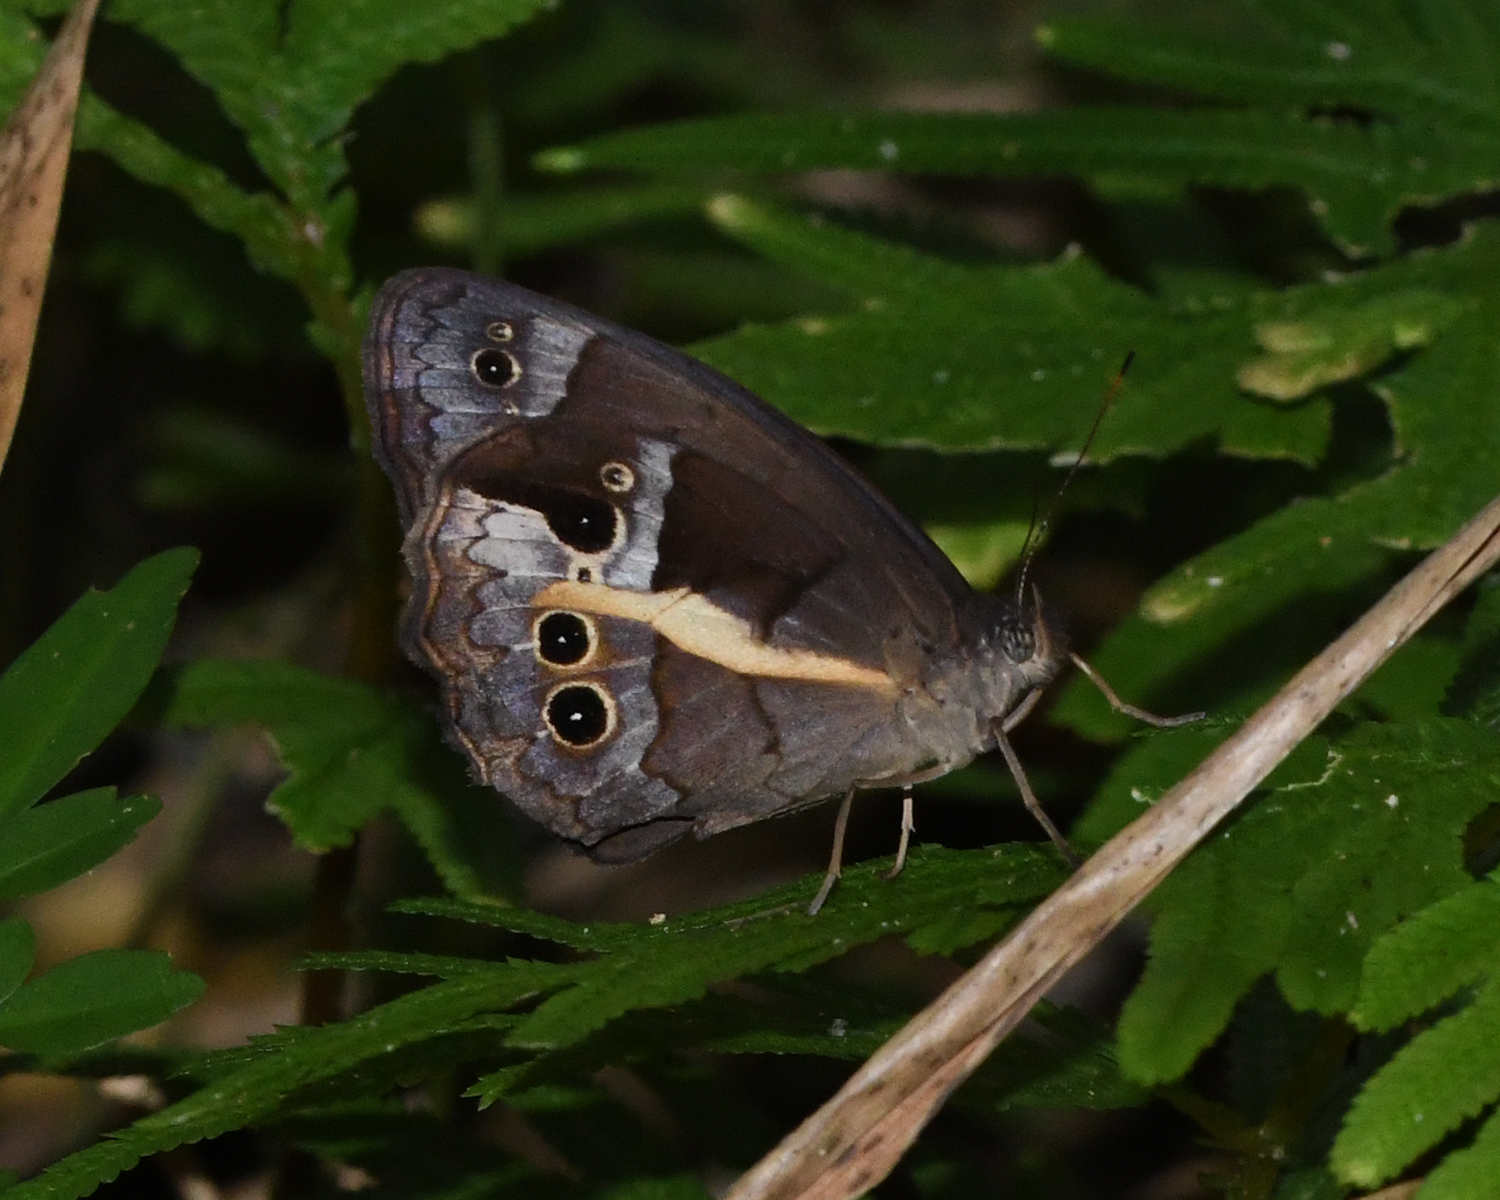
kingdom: Animalia
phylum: Arthropoda
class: Insecta
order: Lepidoptera
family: Nymphalidae
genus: Posttaygetis
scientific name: Posttaygetis penelea
